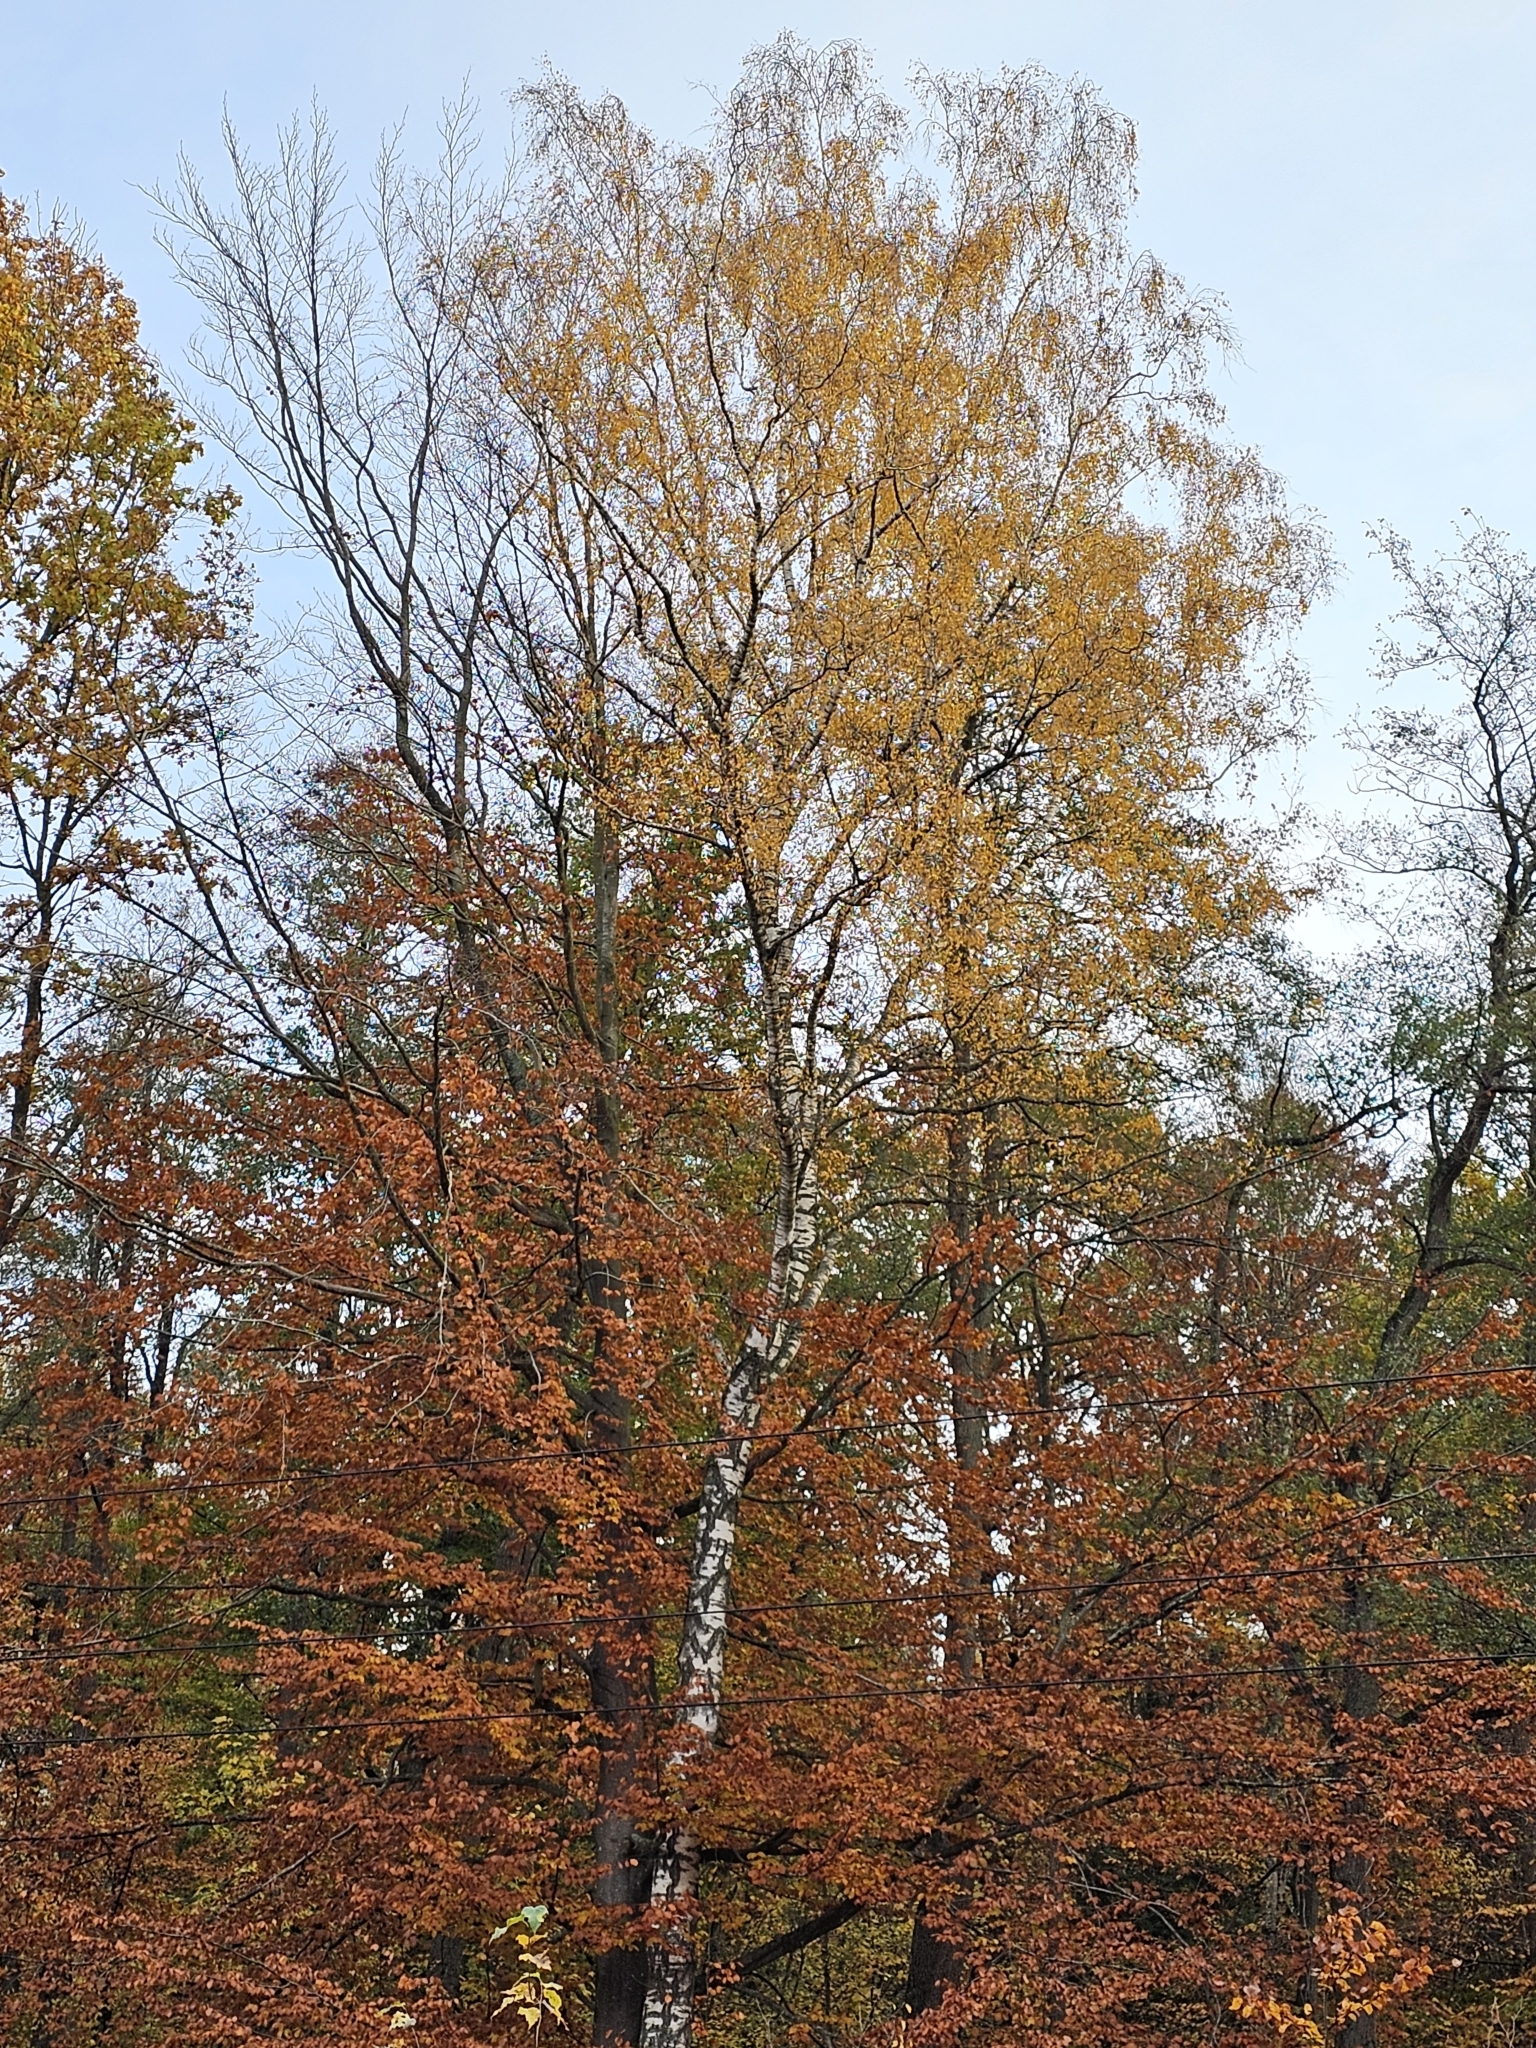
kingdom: Plantae
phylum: Tracheophyta
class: Magnoliopsida
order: Fagales
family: Betulaceae
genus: Betula
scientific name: Betula pendula
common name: Silver birch
